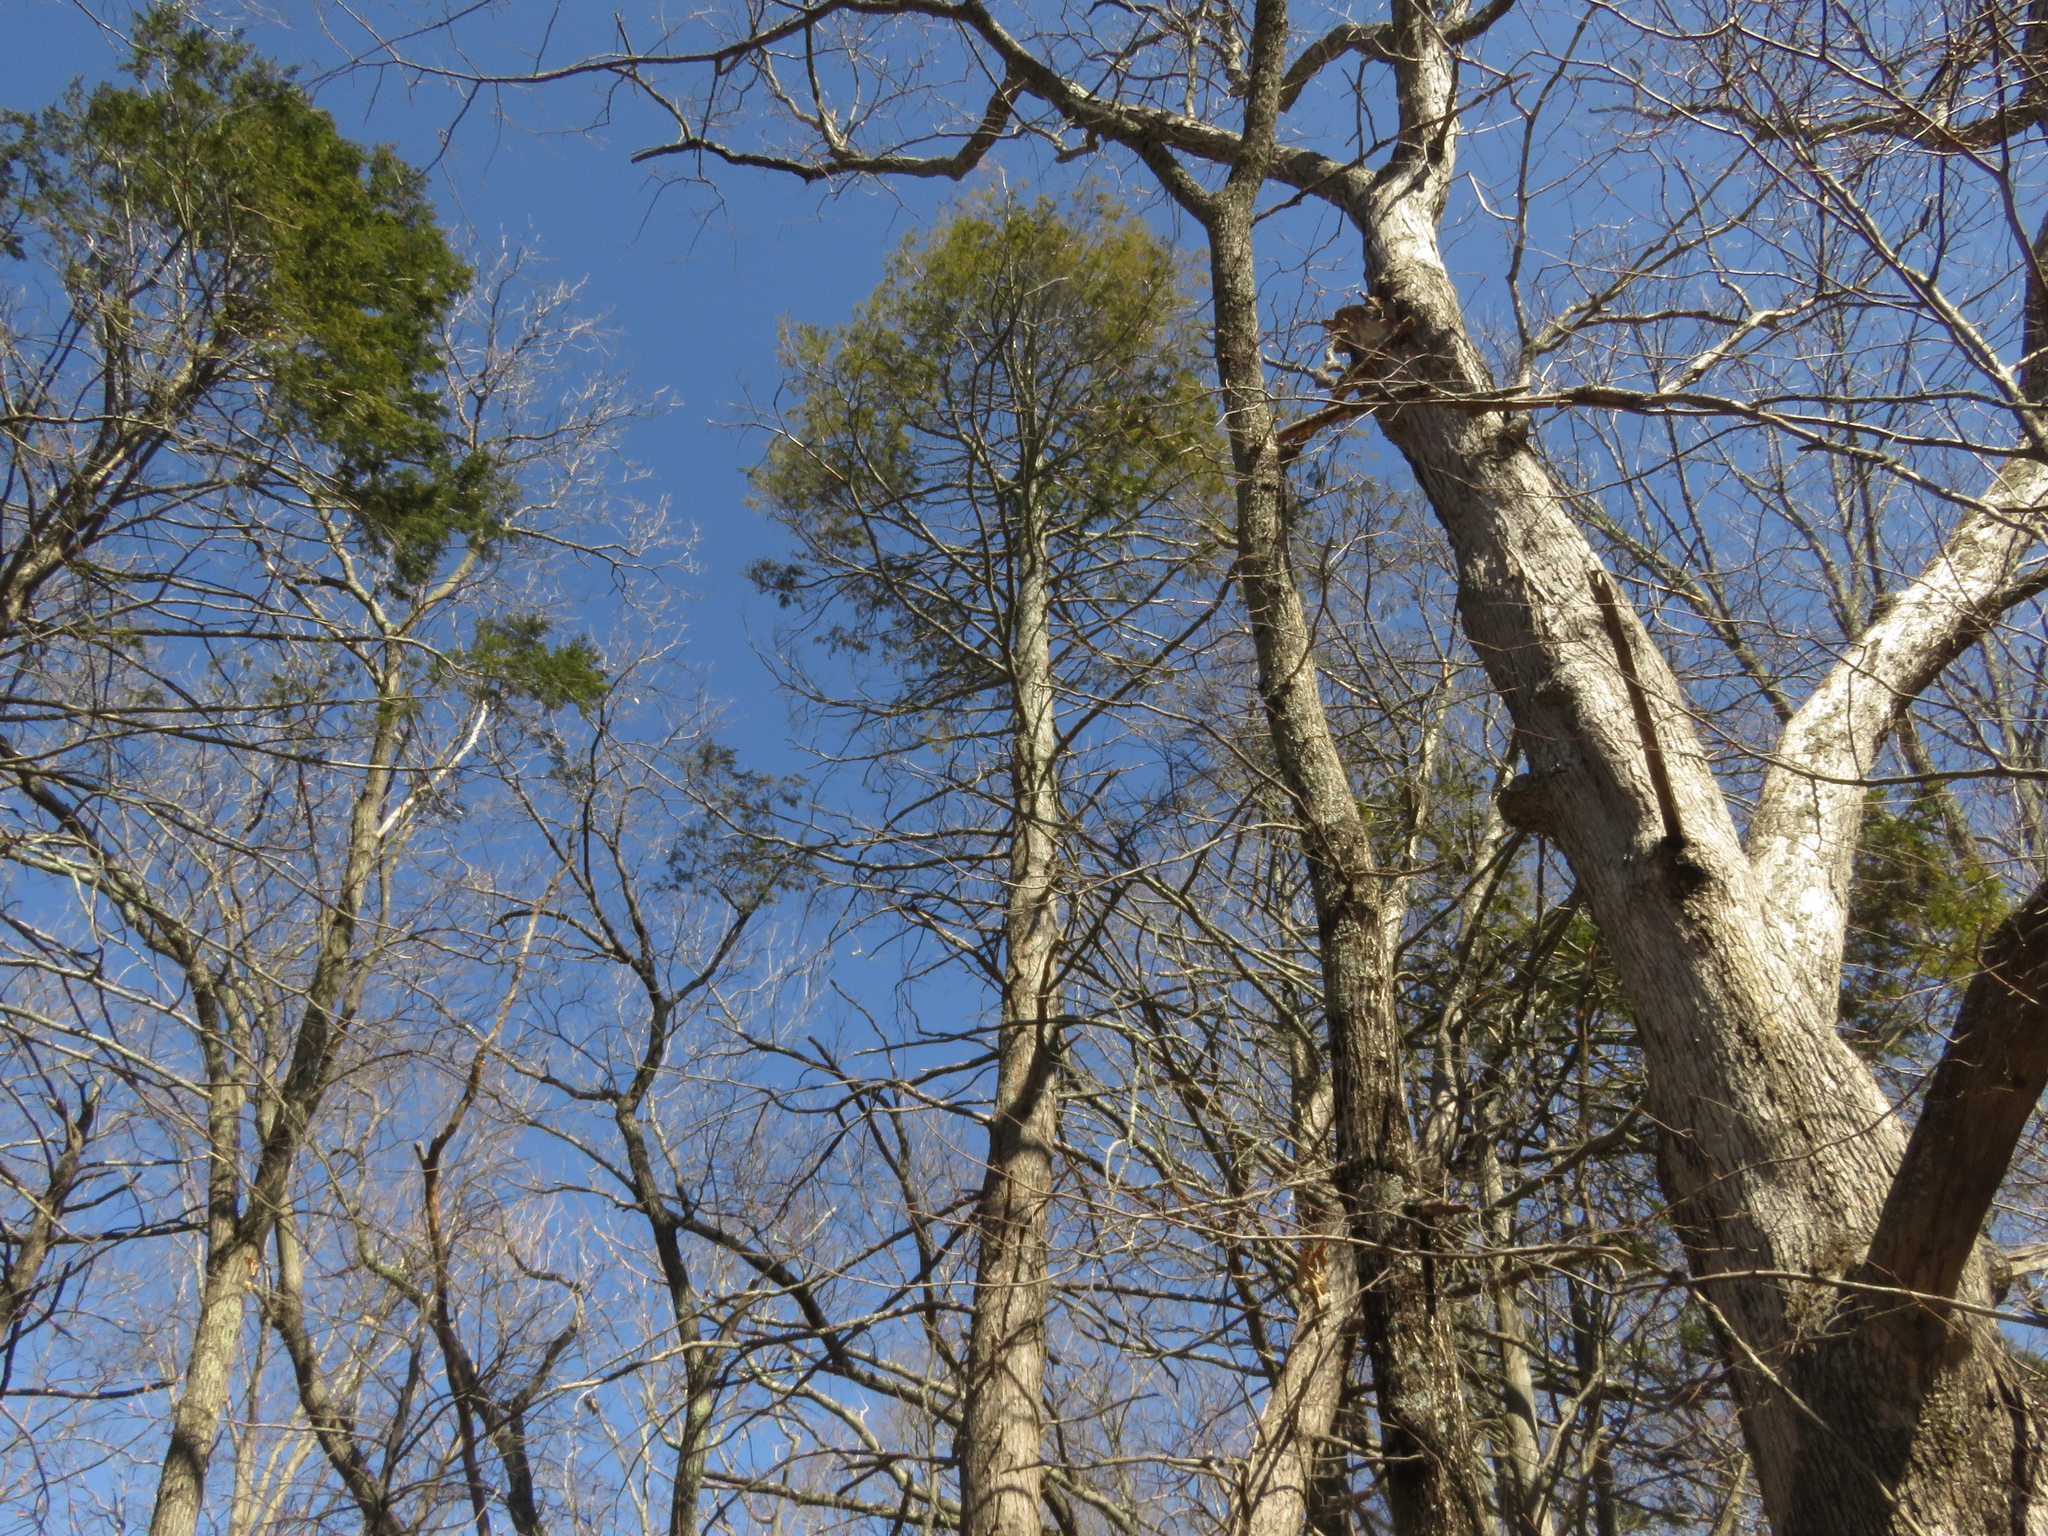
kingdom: Plantae
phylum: Tracheophyta
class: Pinopsida
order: Pinales
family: Pinaceae
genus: Tsuga
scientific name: Tsuga canadensis
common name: Eastern hemlock
